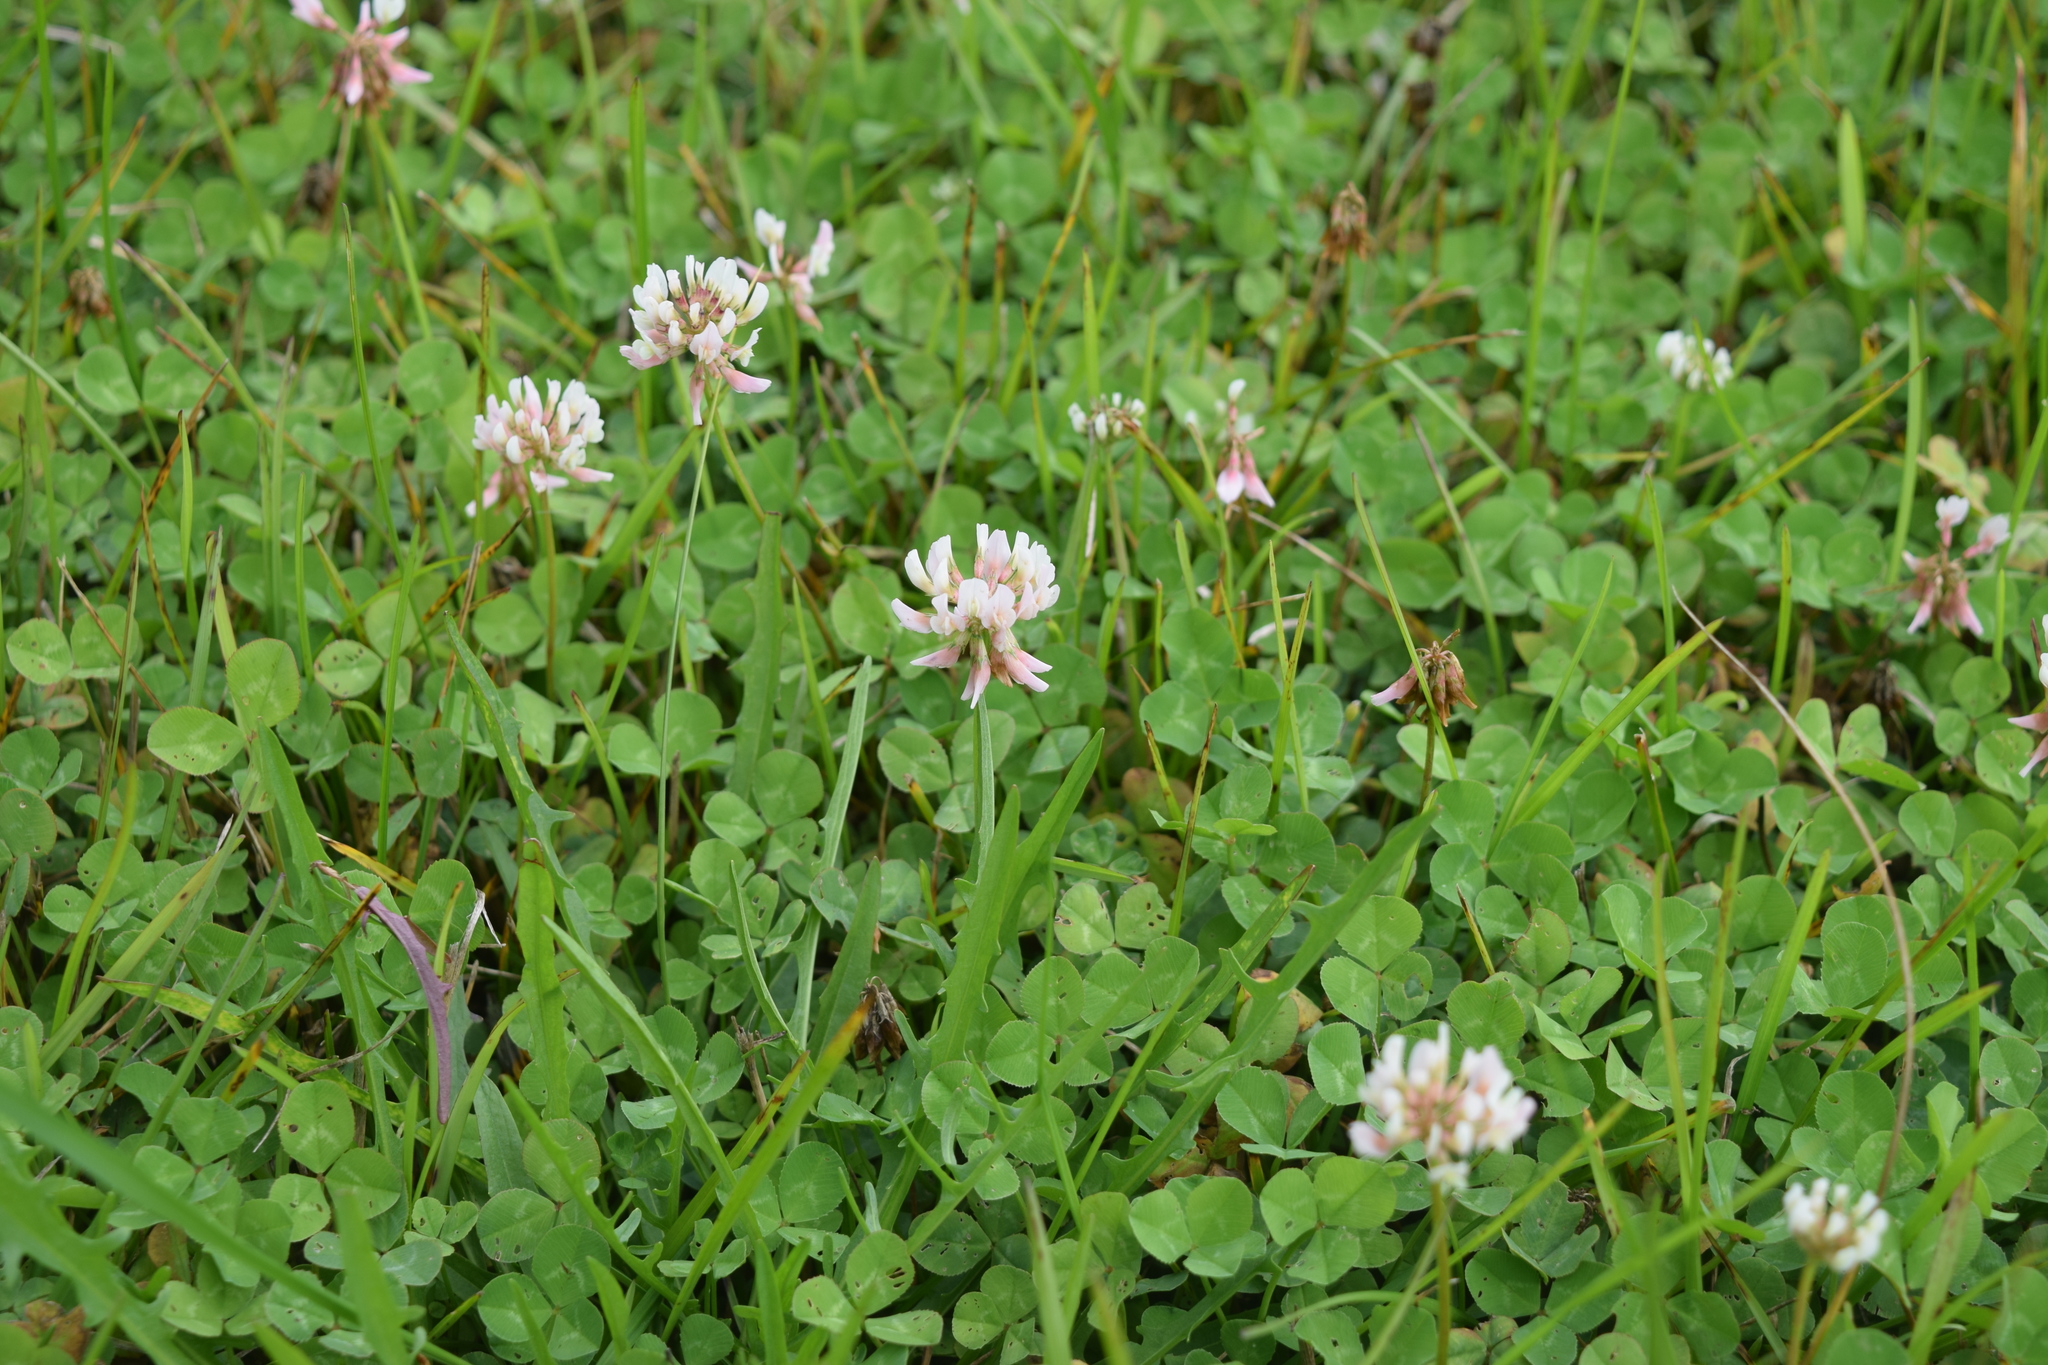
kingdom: Plantae
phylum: Tracheophyta
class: Magnoliopsida
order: Fabales
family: Fabaceae
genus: Trifolium
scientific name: Trifolium repens
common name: White clover
